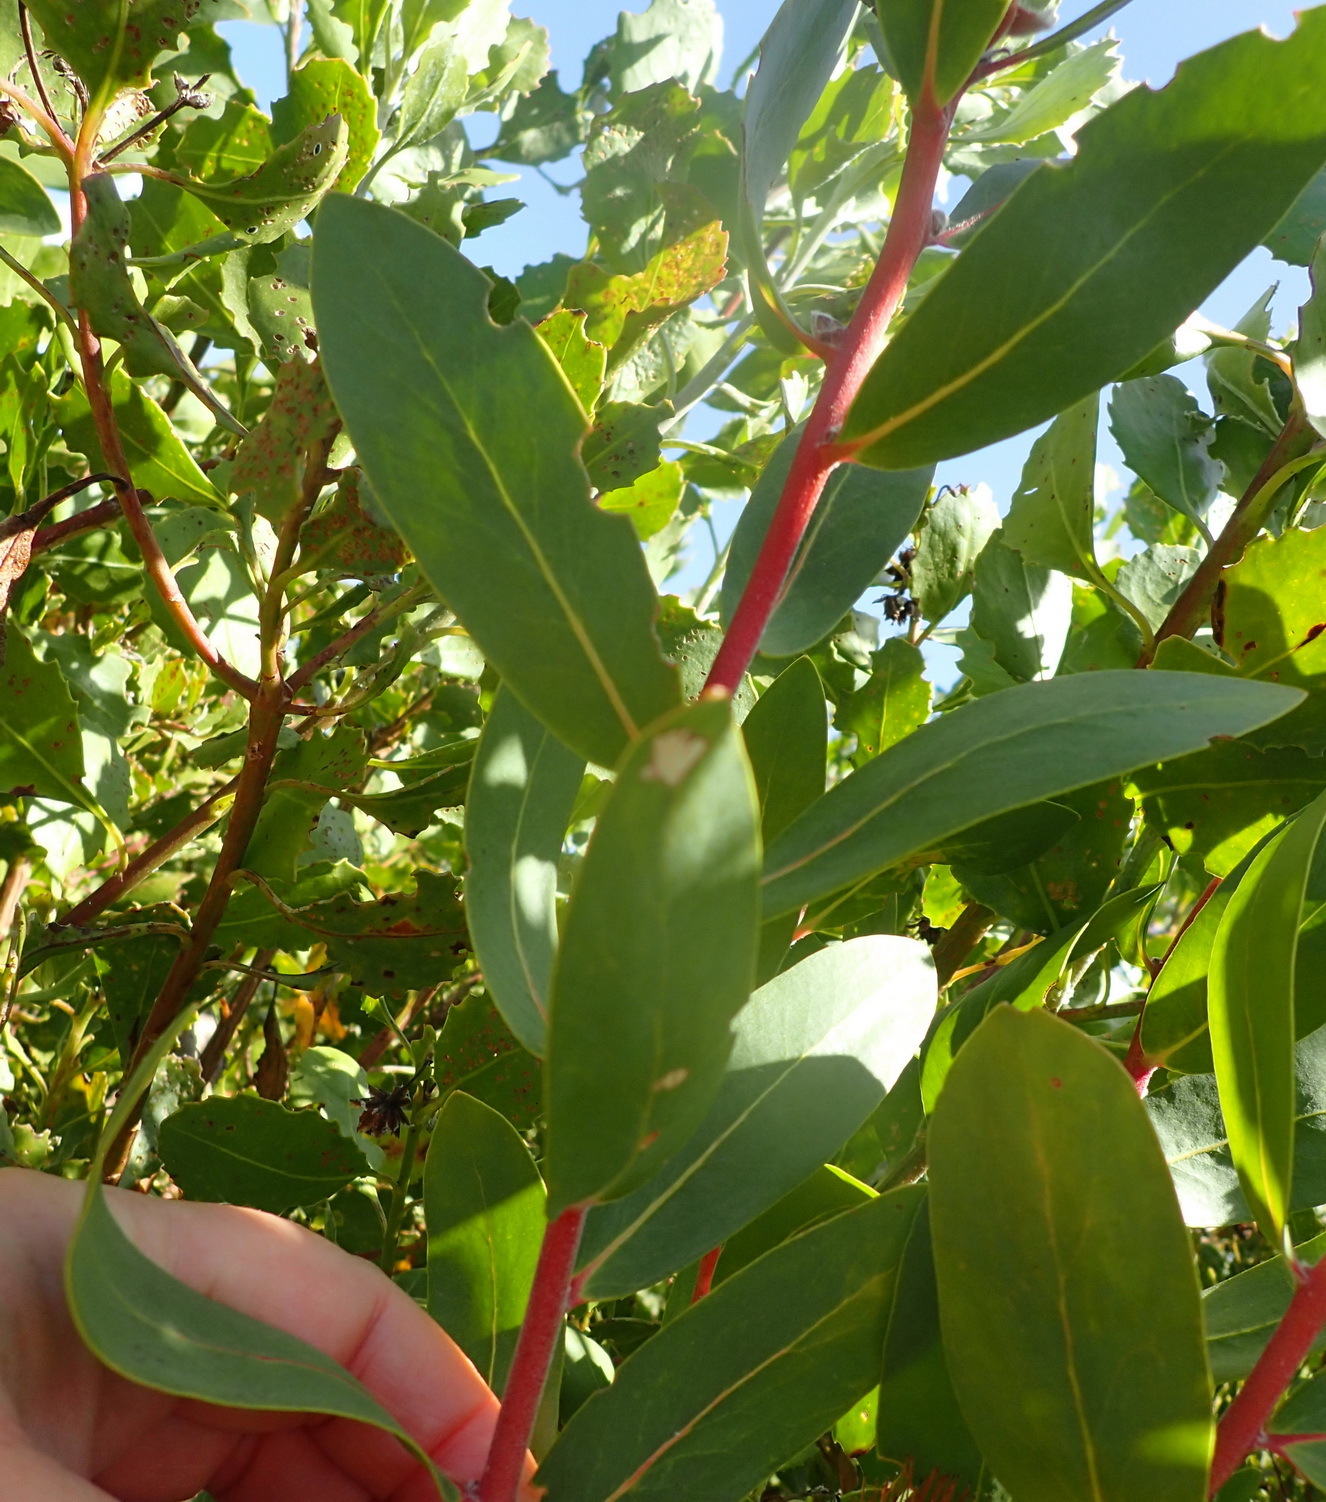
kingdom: Plantae
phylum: Tracheophyta
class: Magnoliopsida
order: Proteales
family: Proteaceae
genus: Protea
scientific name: Protea mundii
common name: Forest sugarbush
